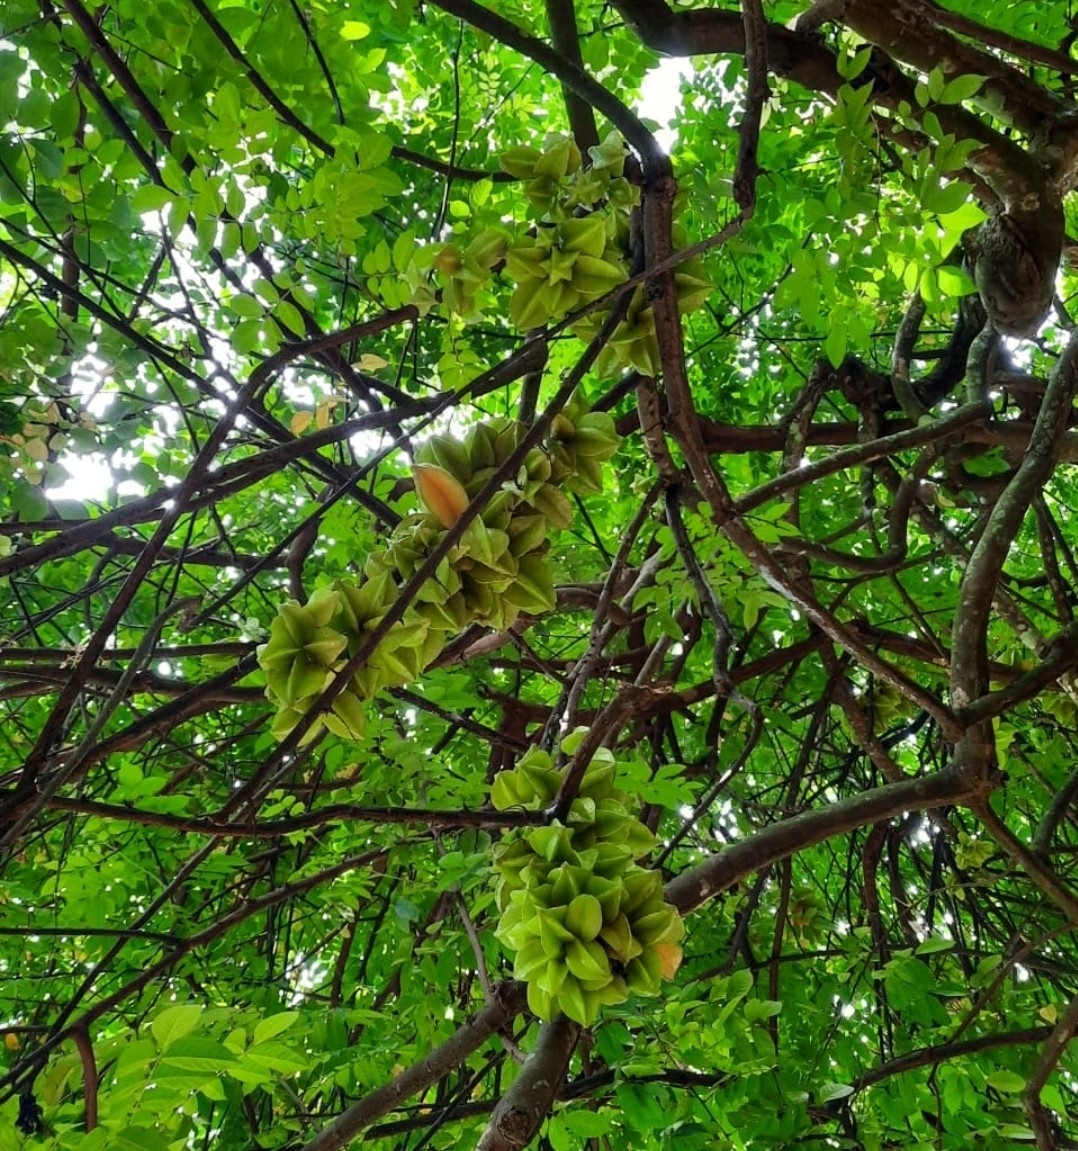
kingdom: Plantae
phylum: Tracheophyta
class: Magnoliopsida
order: Oxalidales
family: Oxalidaceae
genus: Averrhoa
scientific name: Averrhoa carambola
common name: Blimbing
